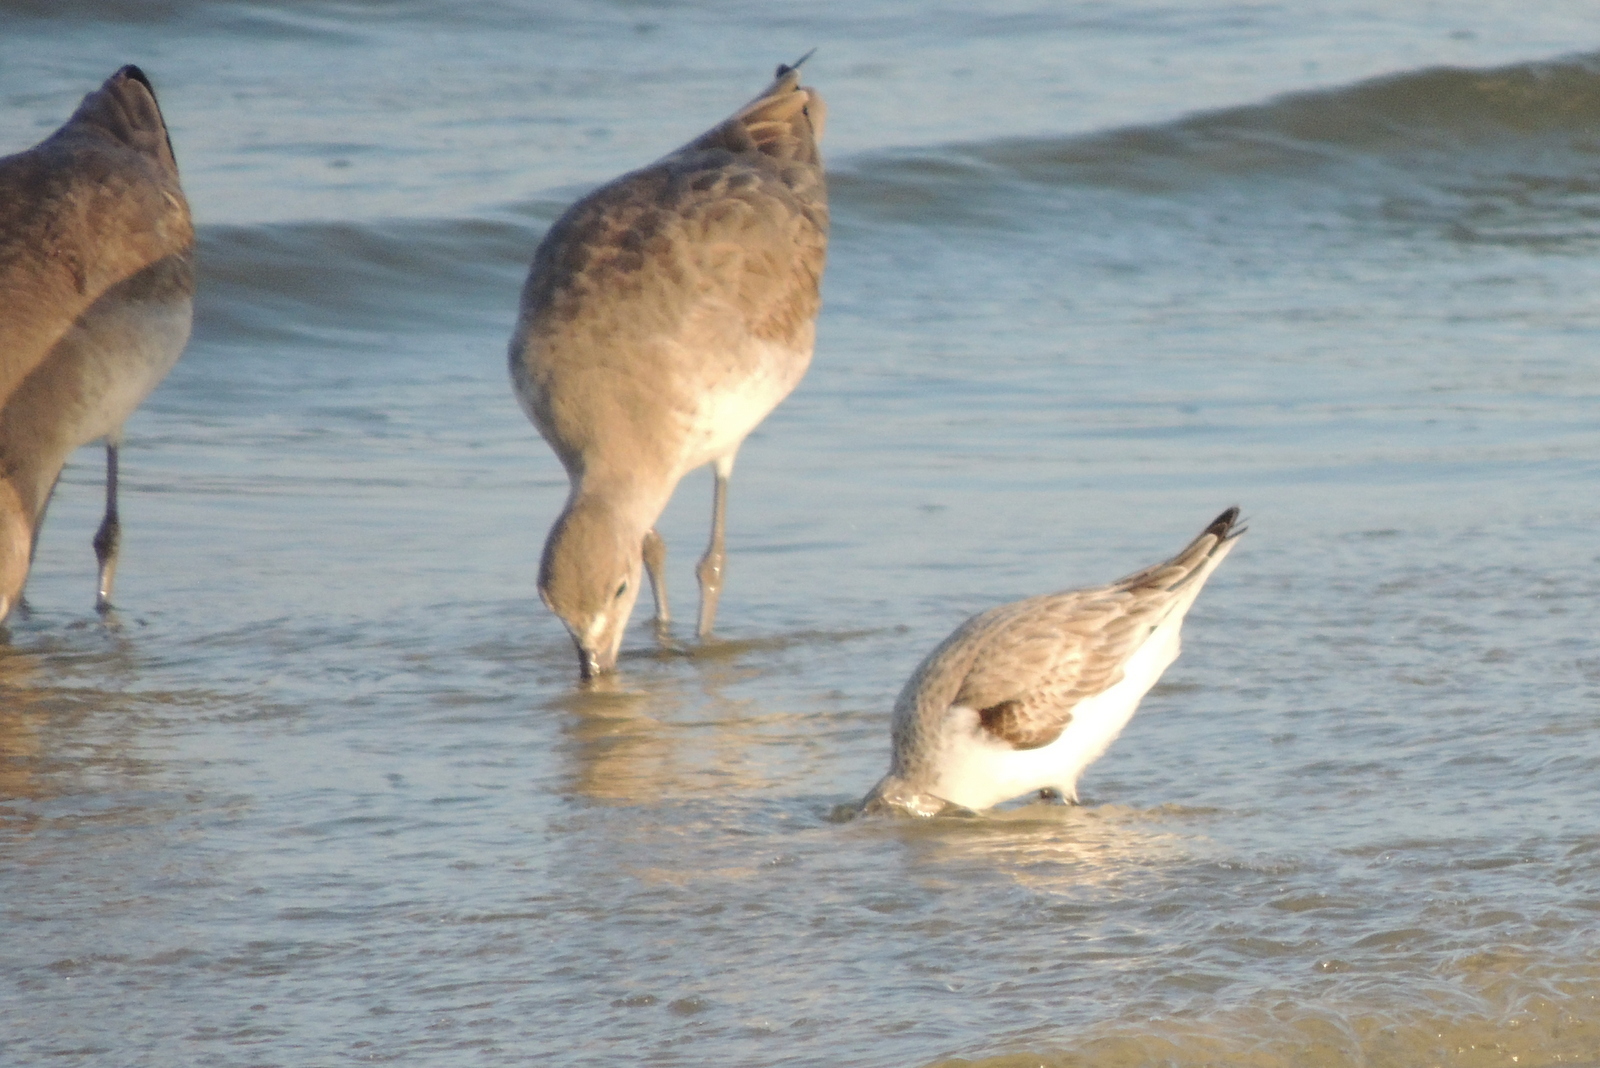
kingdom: Animalia
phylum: Chordata
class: Aves
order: Charadriiformes
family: Scolopacidae
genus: Tringa
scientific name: Tringa semipalmata
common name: Willet
